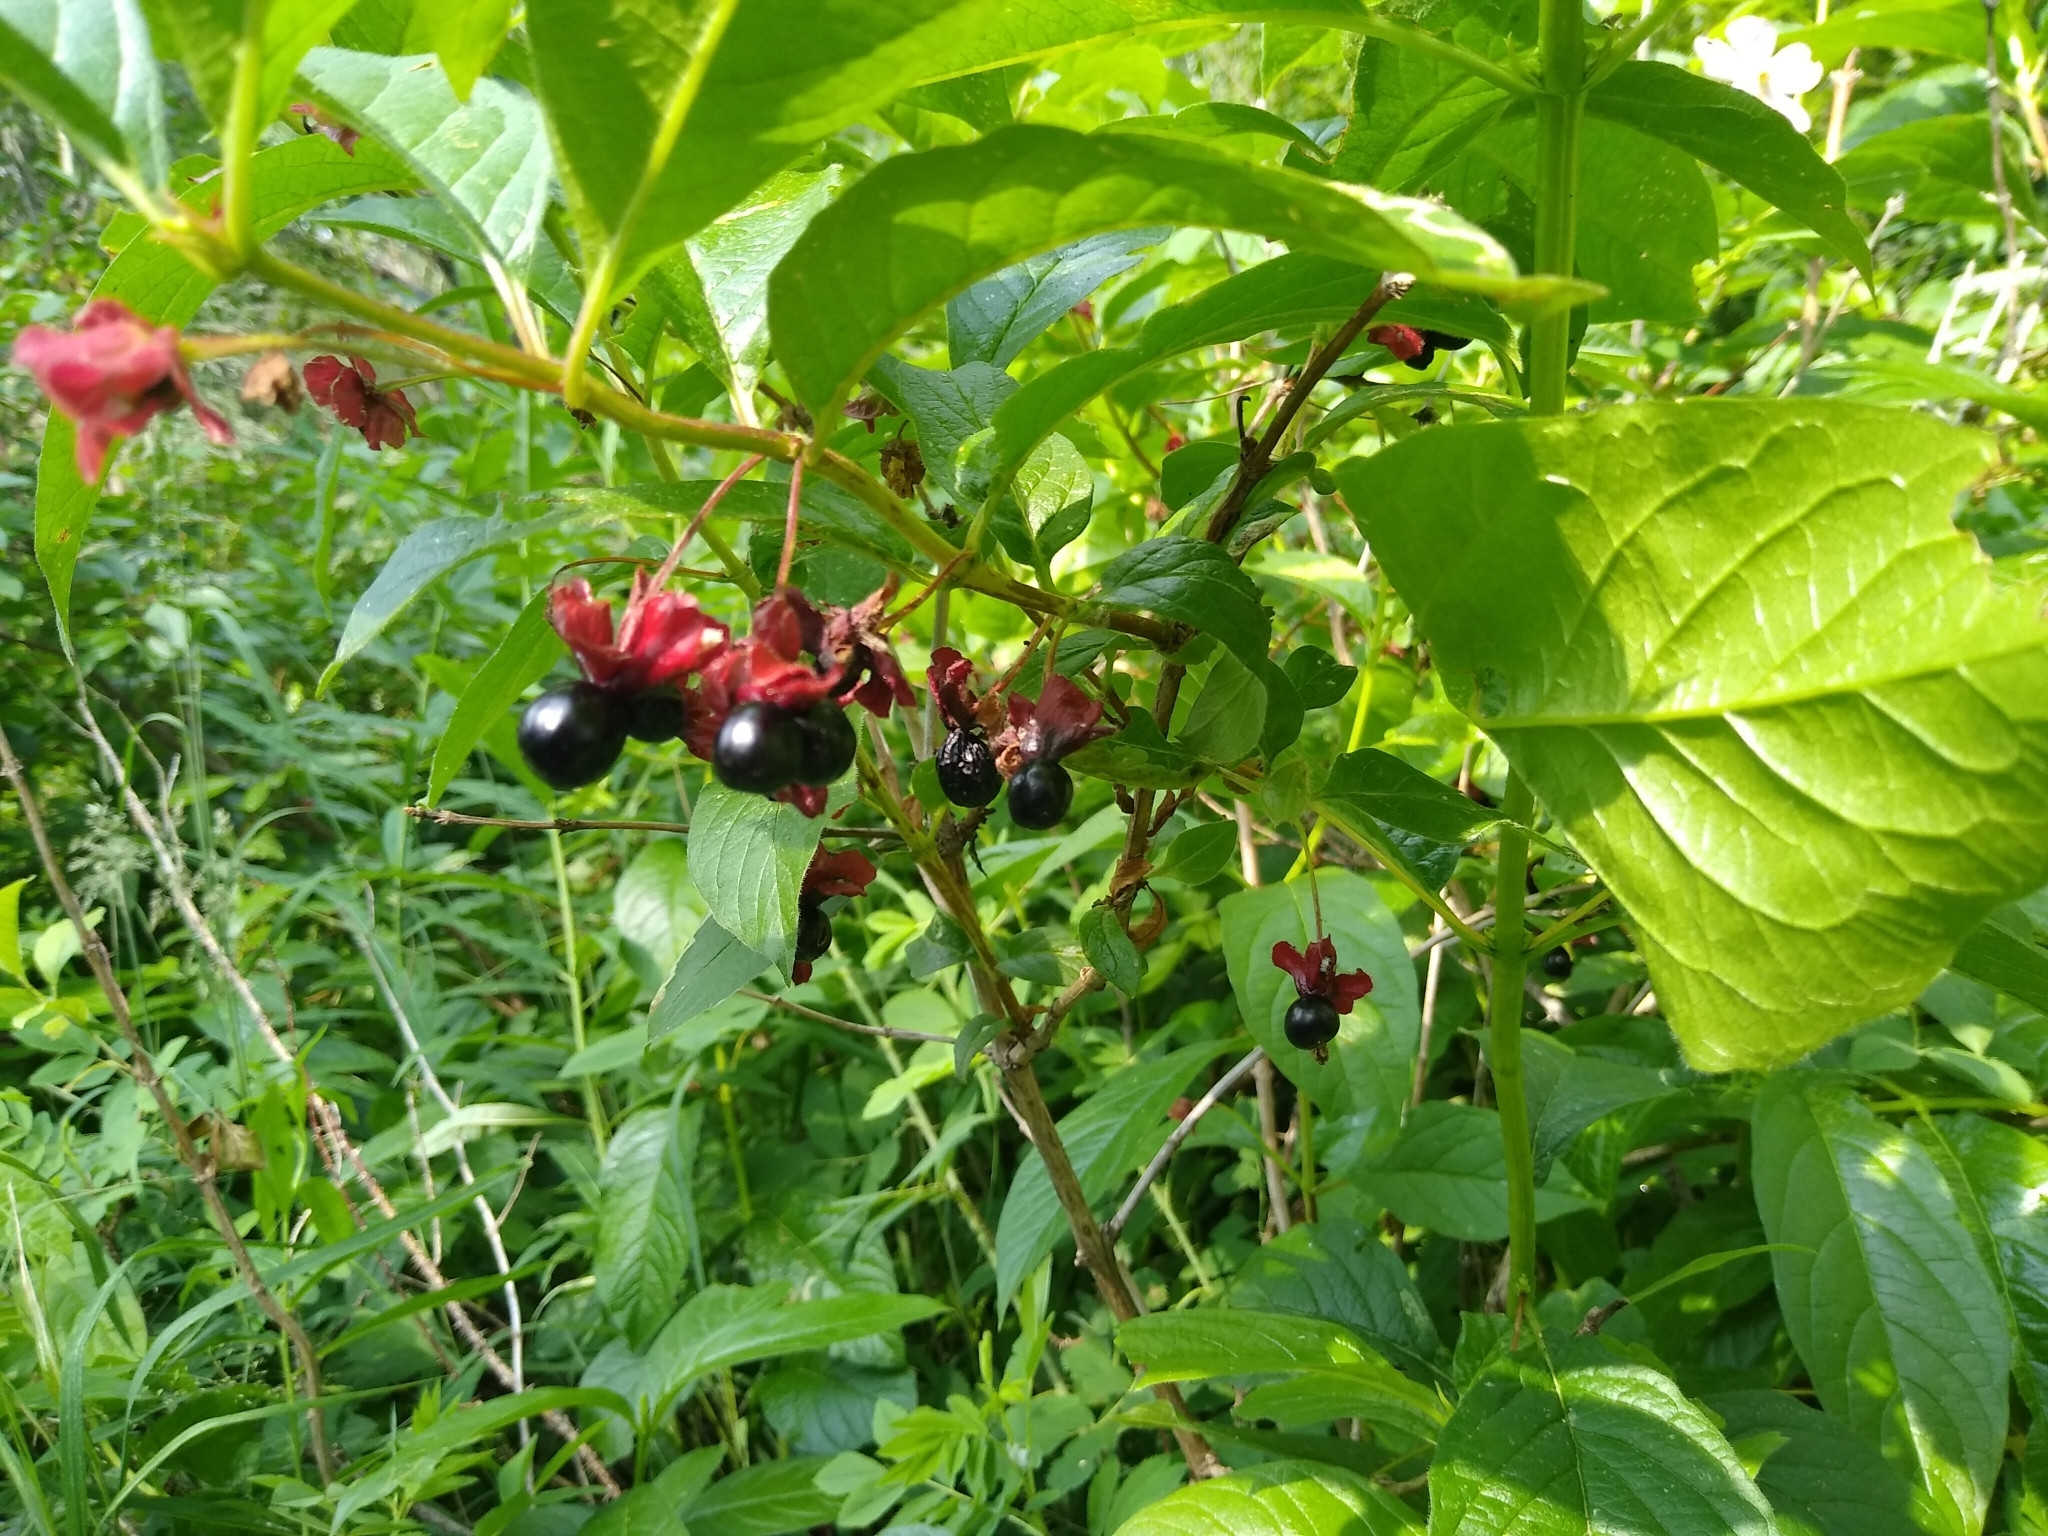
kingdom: Plantae
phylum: Tracheophyta
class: Magnoliopsida
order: Dipsacales
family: Caprifoliaceae
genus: Lonicera
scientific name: Lonicera involucrata
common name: Californian honeysuckle
